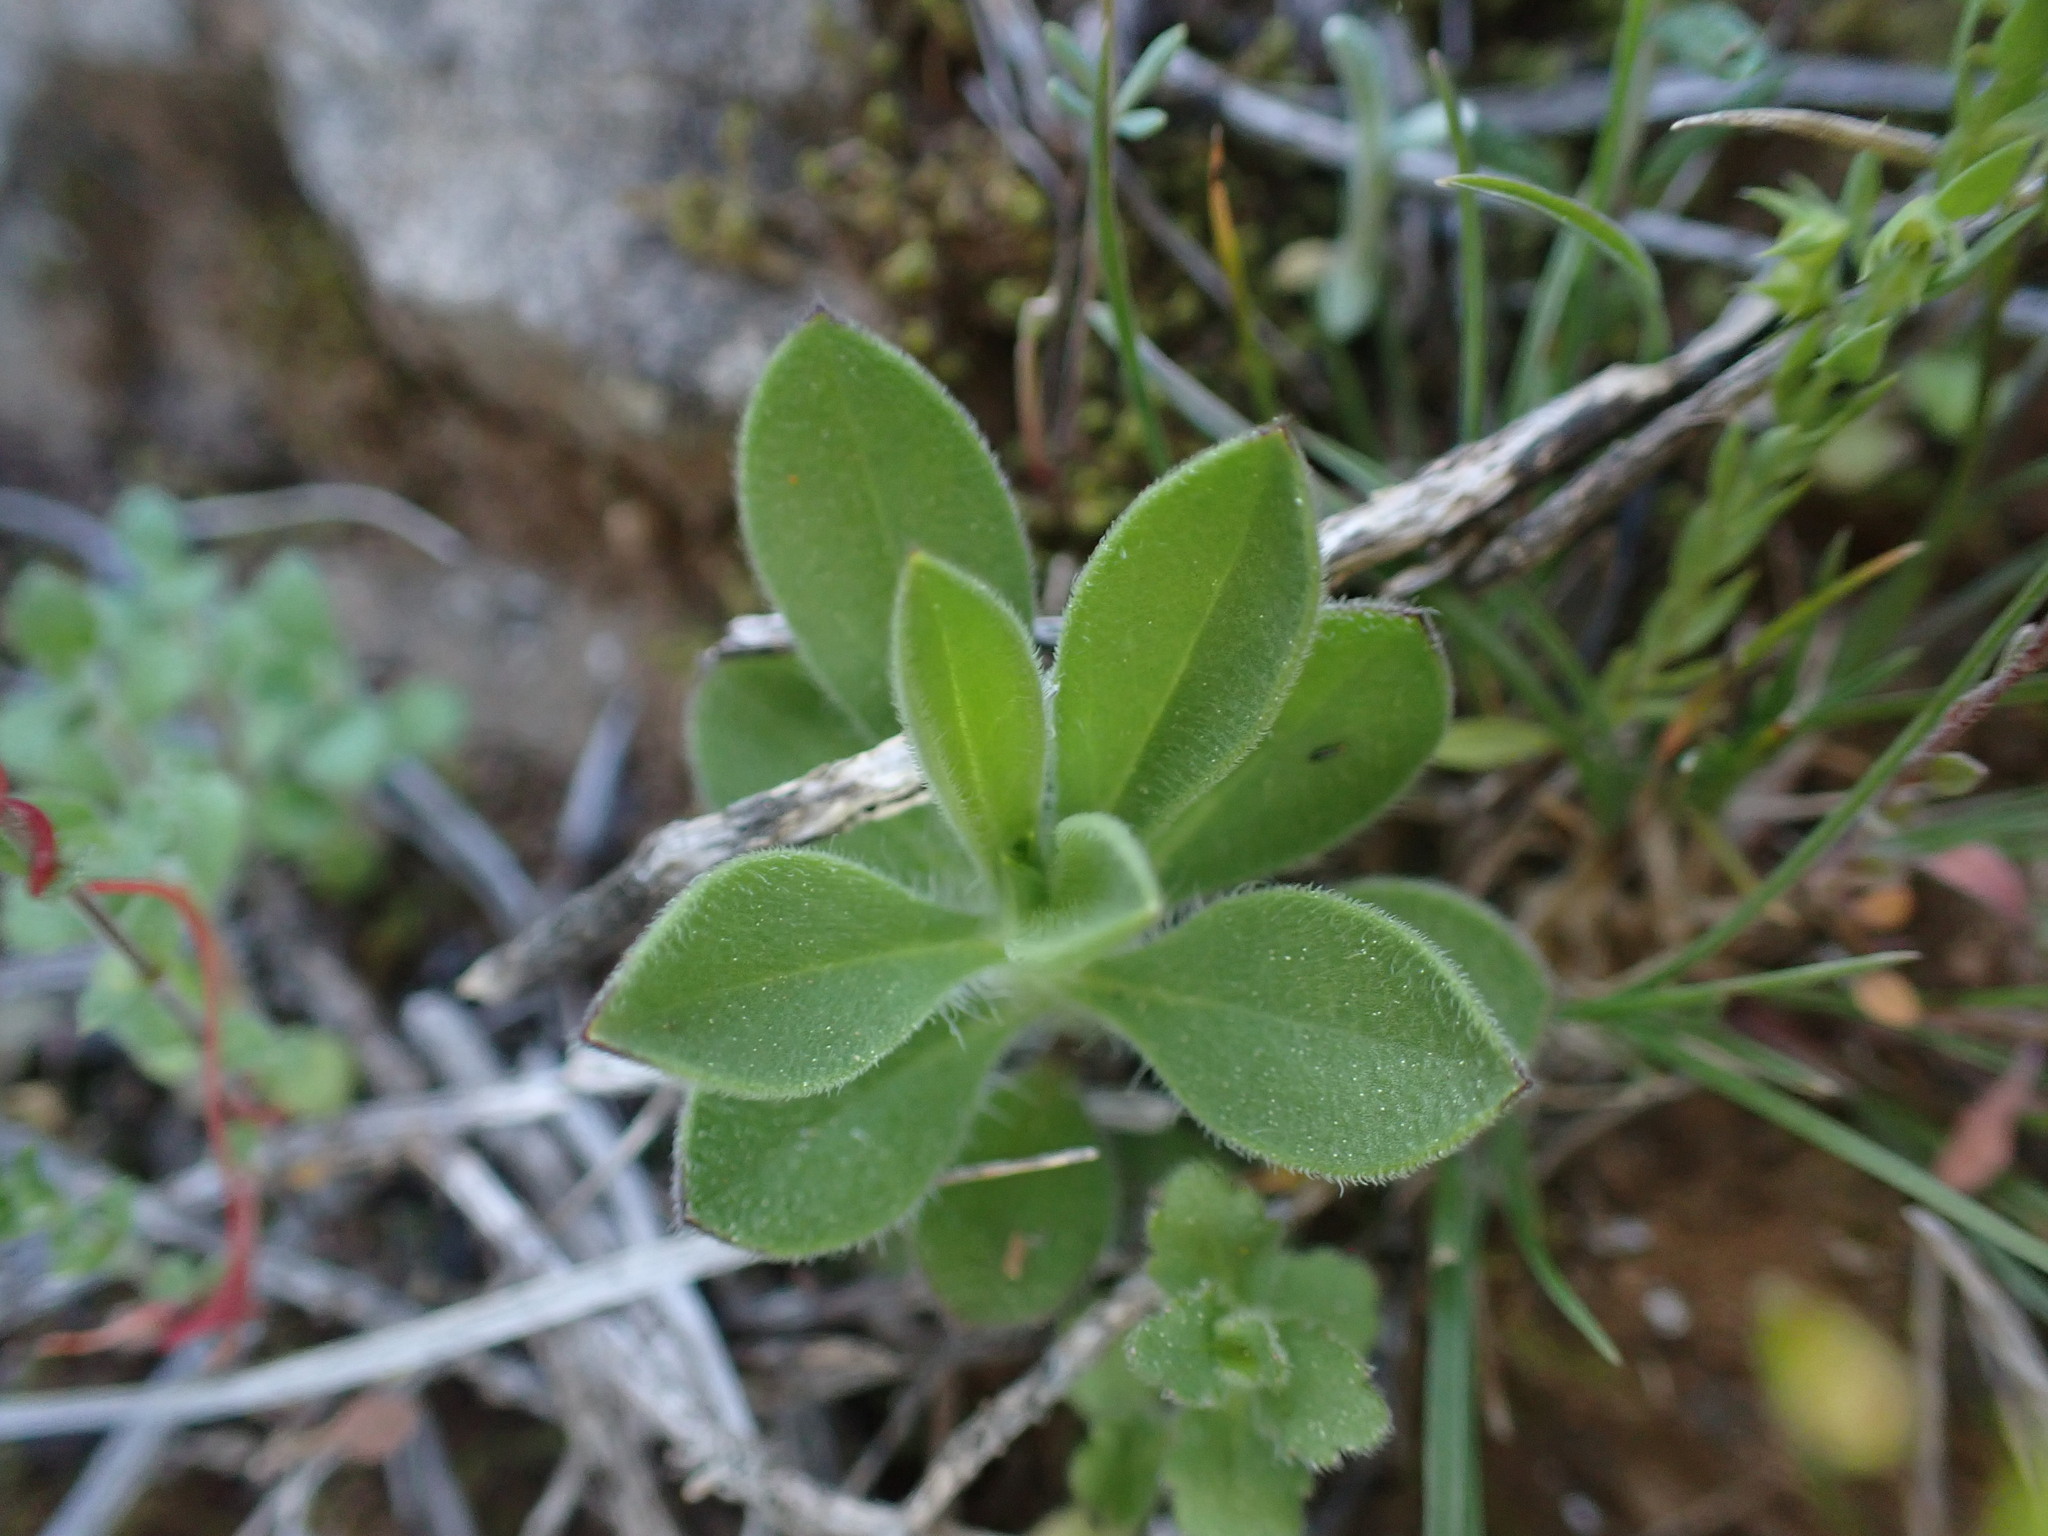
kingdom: Plantae
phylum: Tracheophyta
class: Magnoliopsida
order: Caryophyllales
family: Caryophyllaceae
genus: Silene
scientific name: Silene nocturna
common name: Mediterranean catchfly
